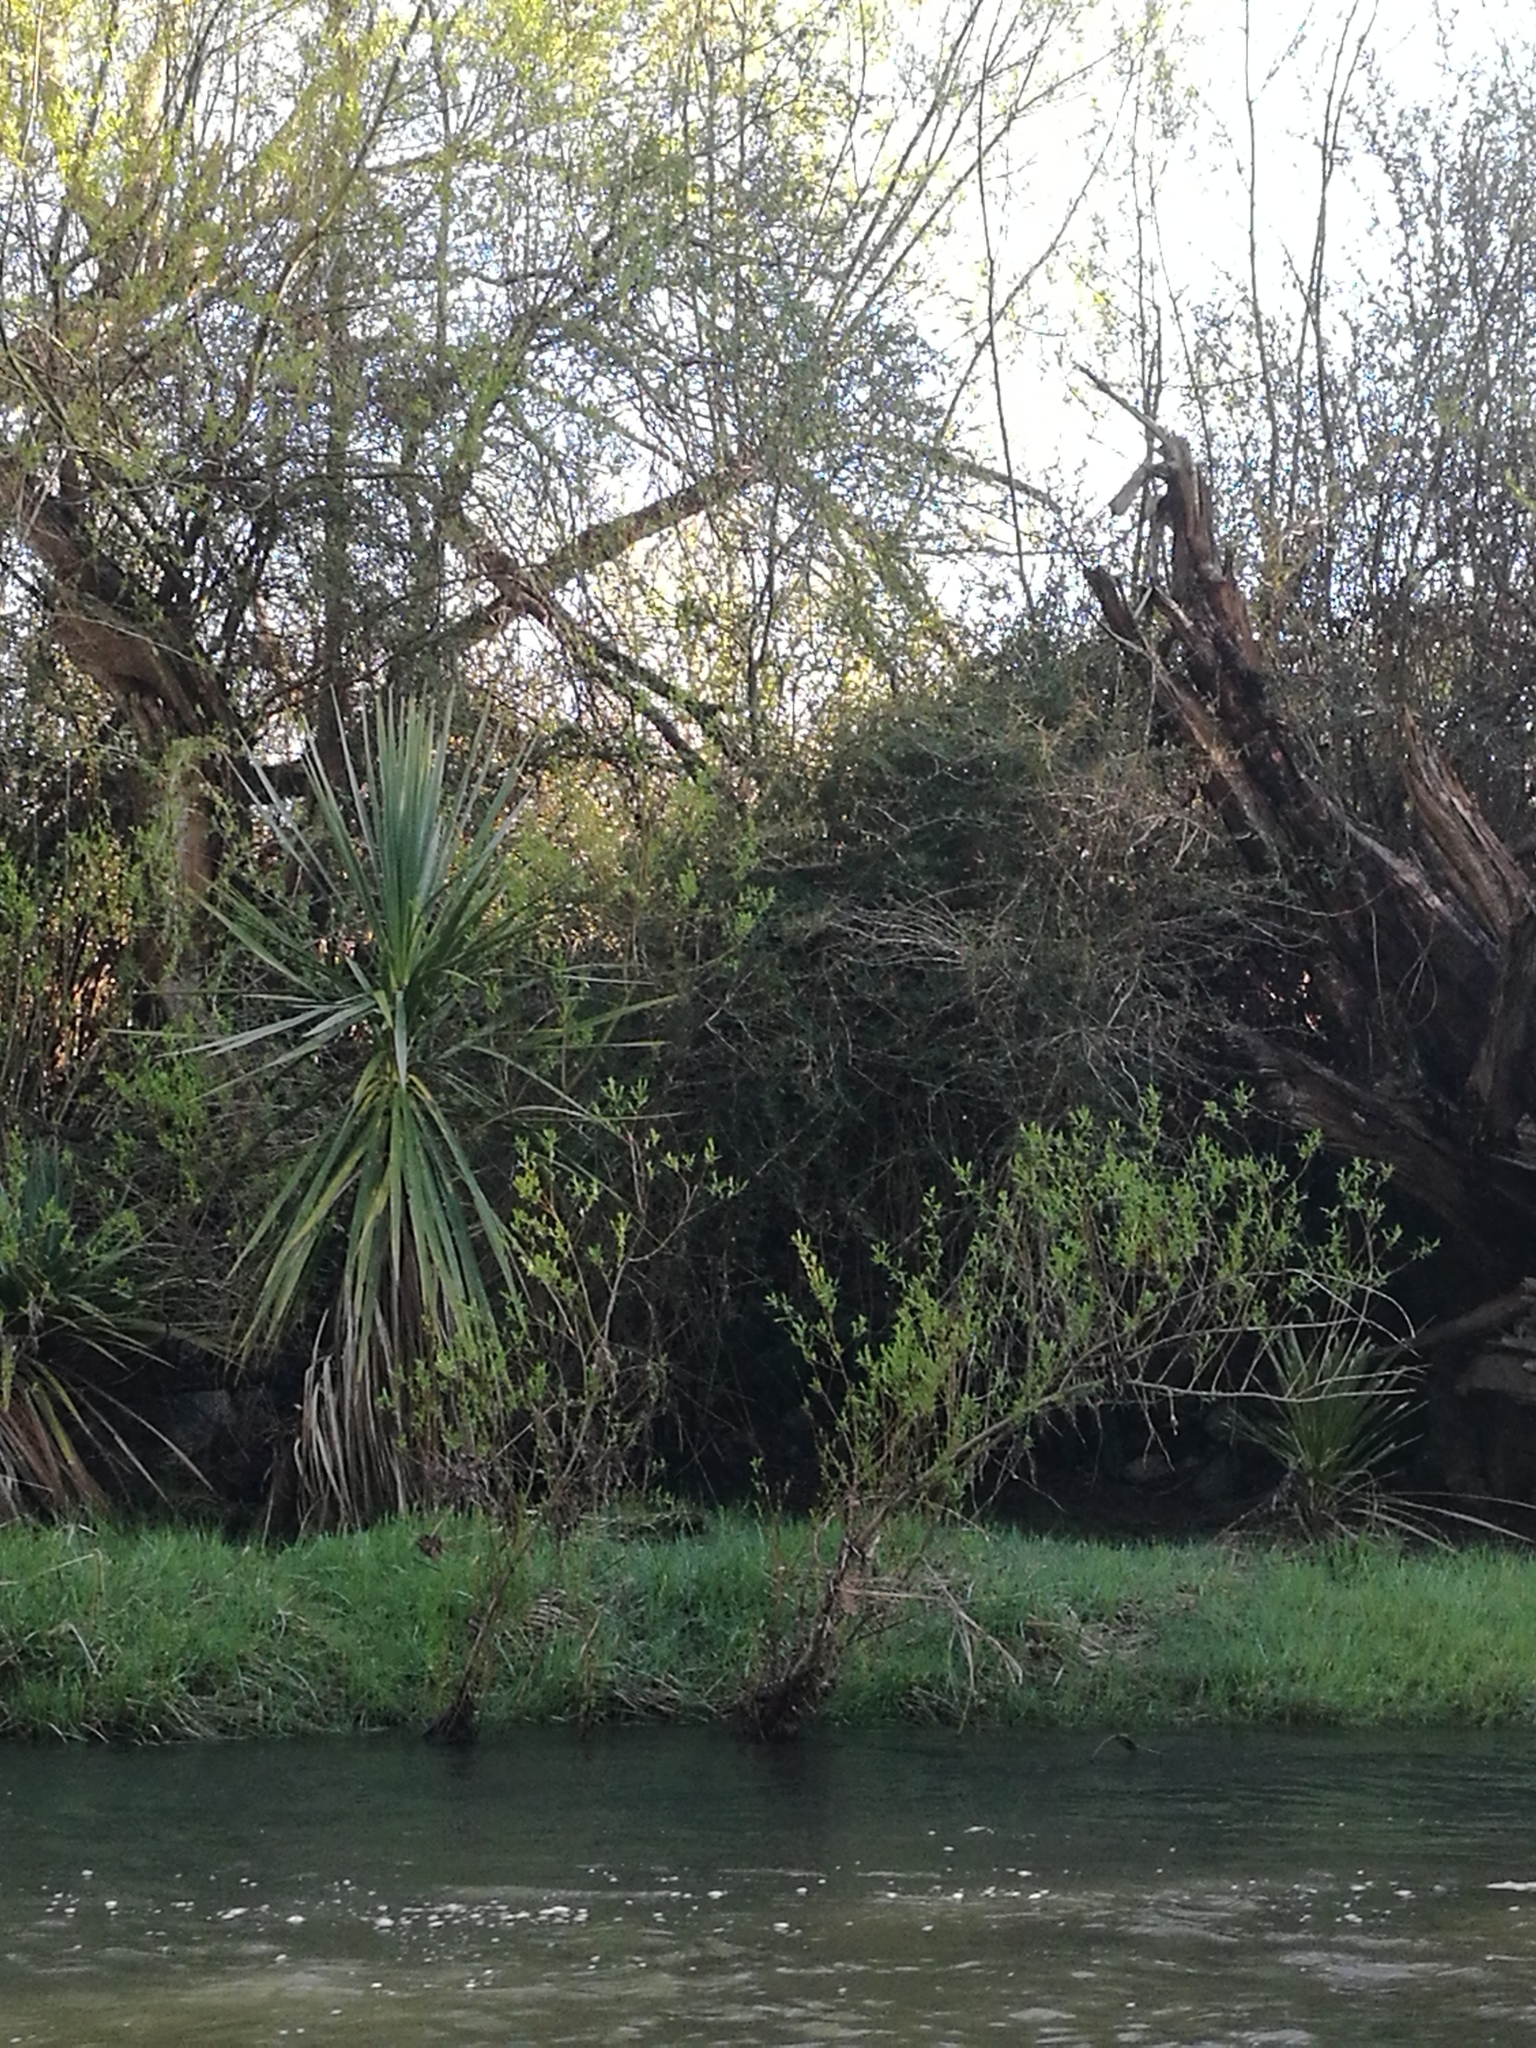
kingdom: Plantae
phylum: Tracheophyta
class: Liliopsida
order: Asparagales
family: Asparagaceae
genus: Cordyline
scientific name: Cordyline australis
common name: Cabbage-palm
